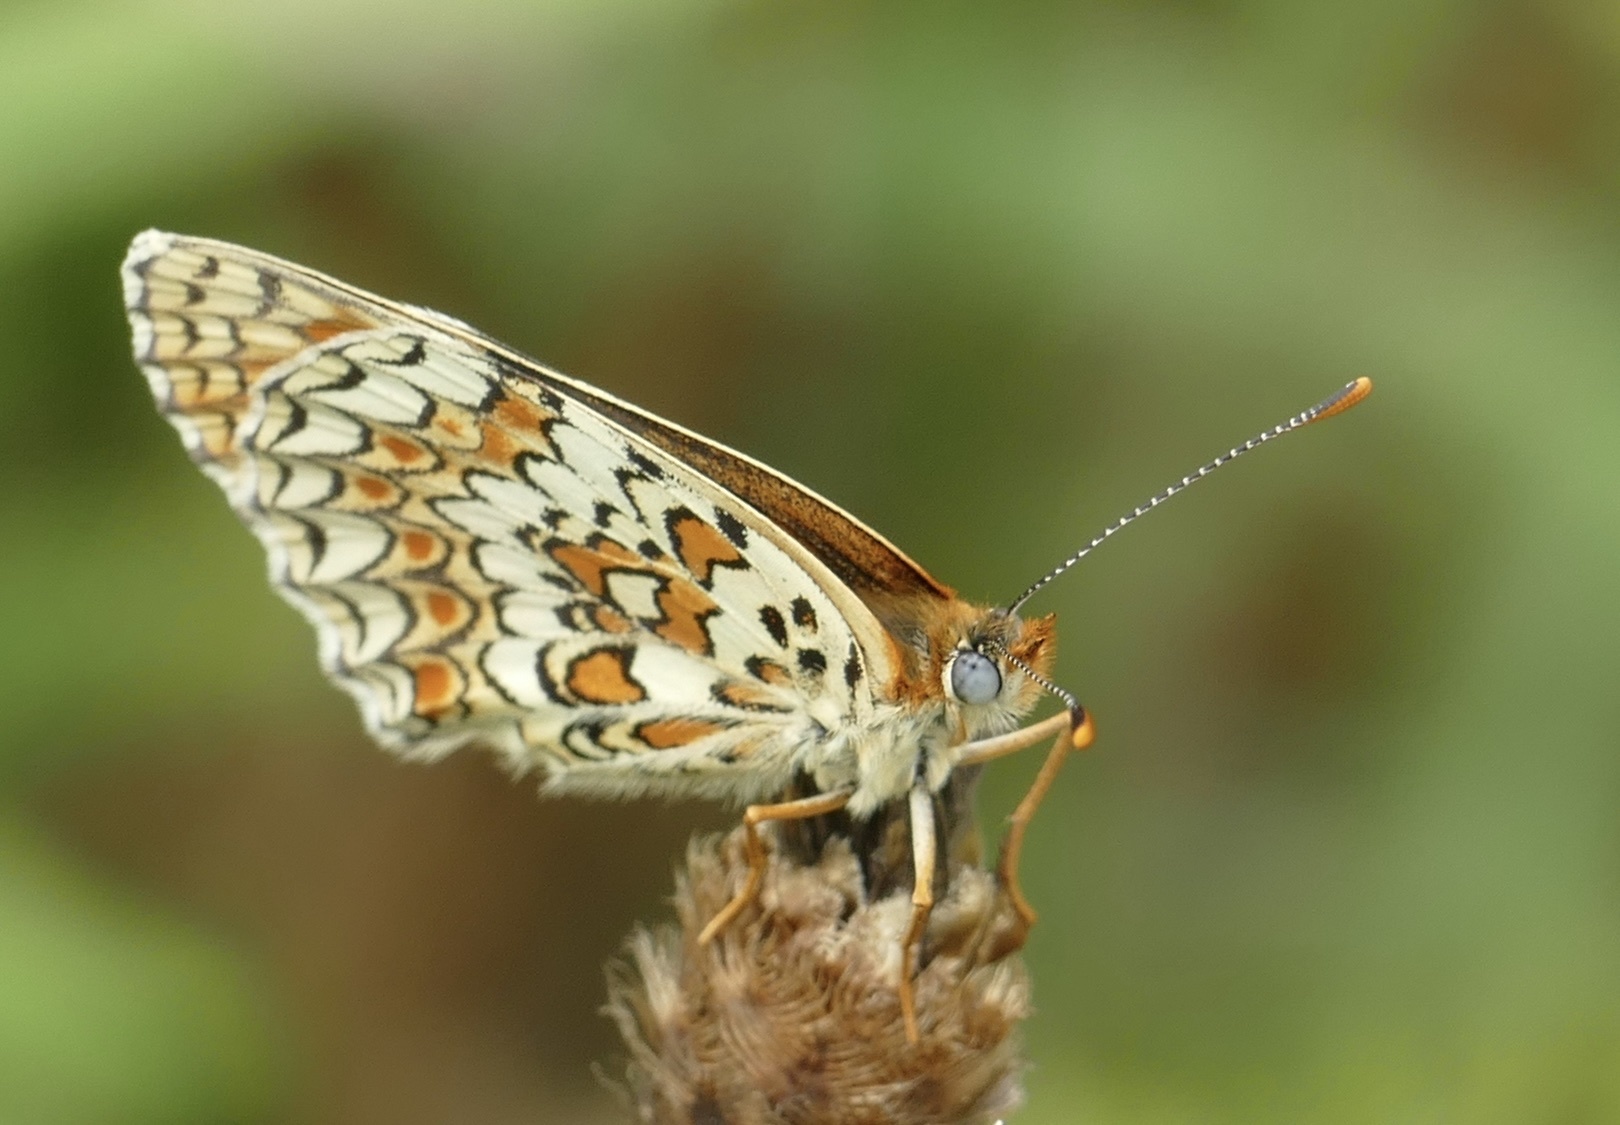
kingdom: Animalia
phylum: Arthropoda
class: Insecta
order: Lepidoptera
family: Nymphalidae
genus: Melitaea
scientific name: Melitaea phoebe
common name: Knapweed fritillary
